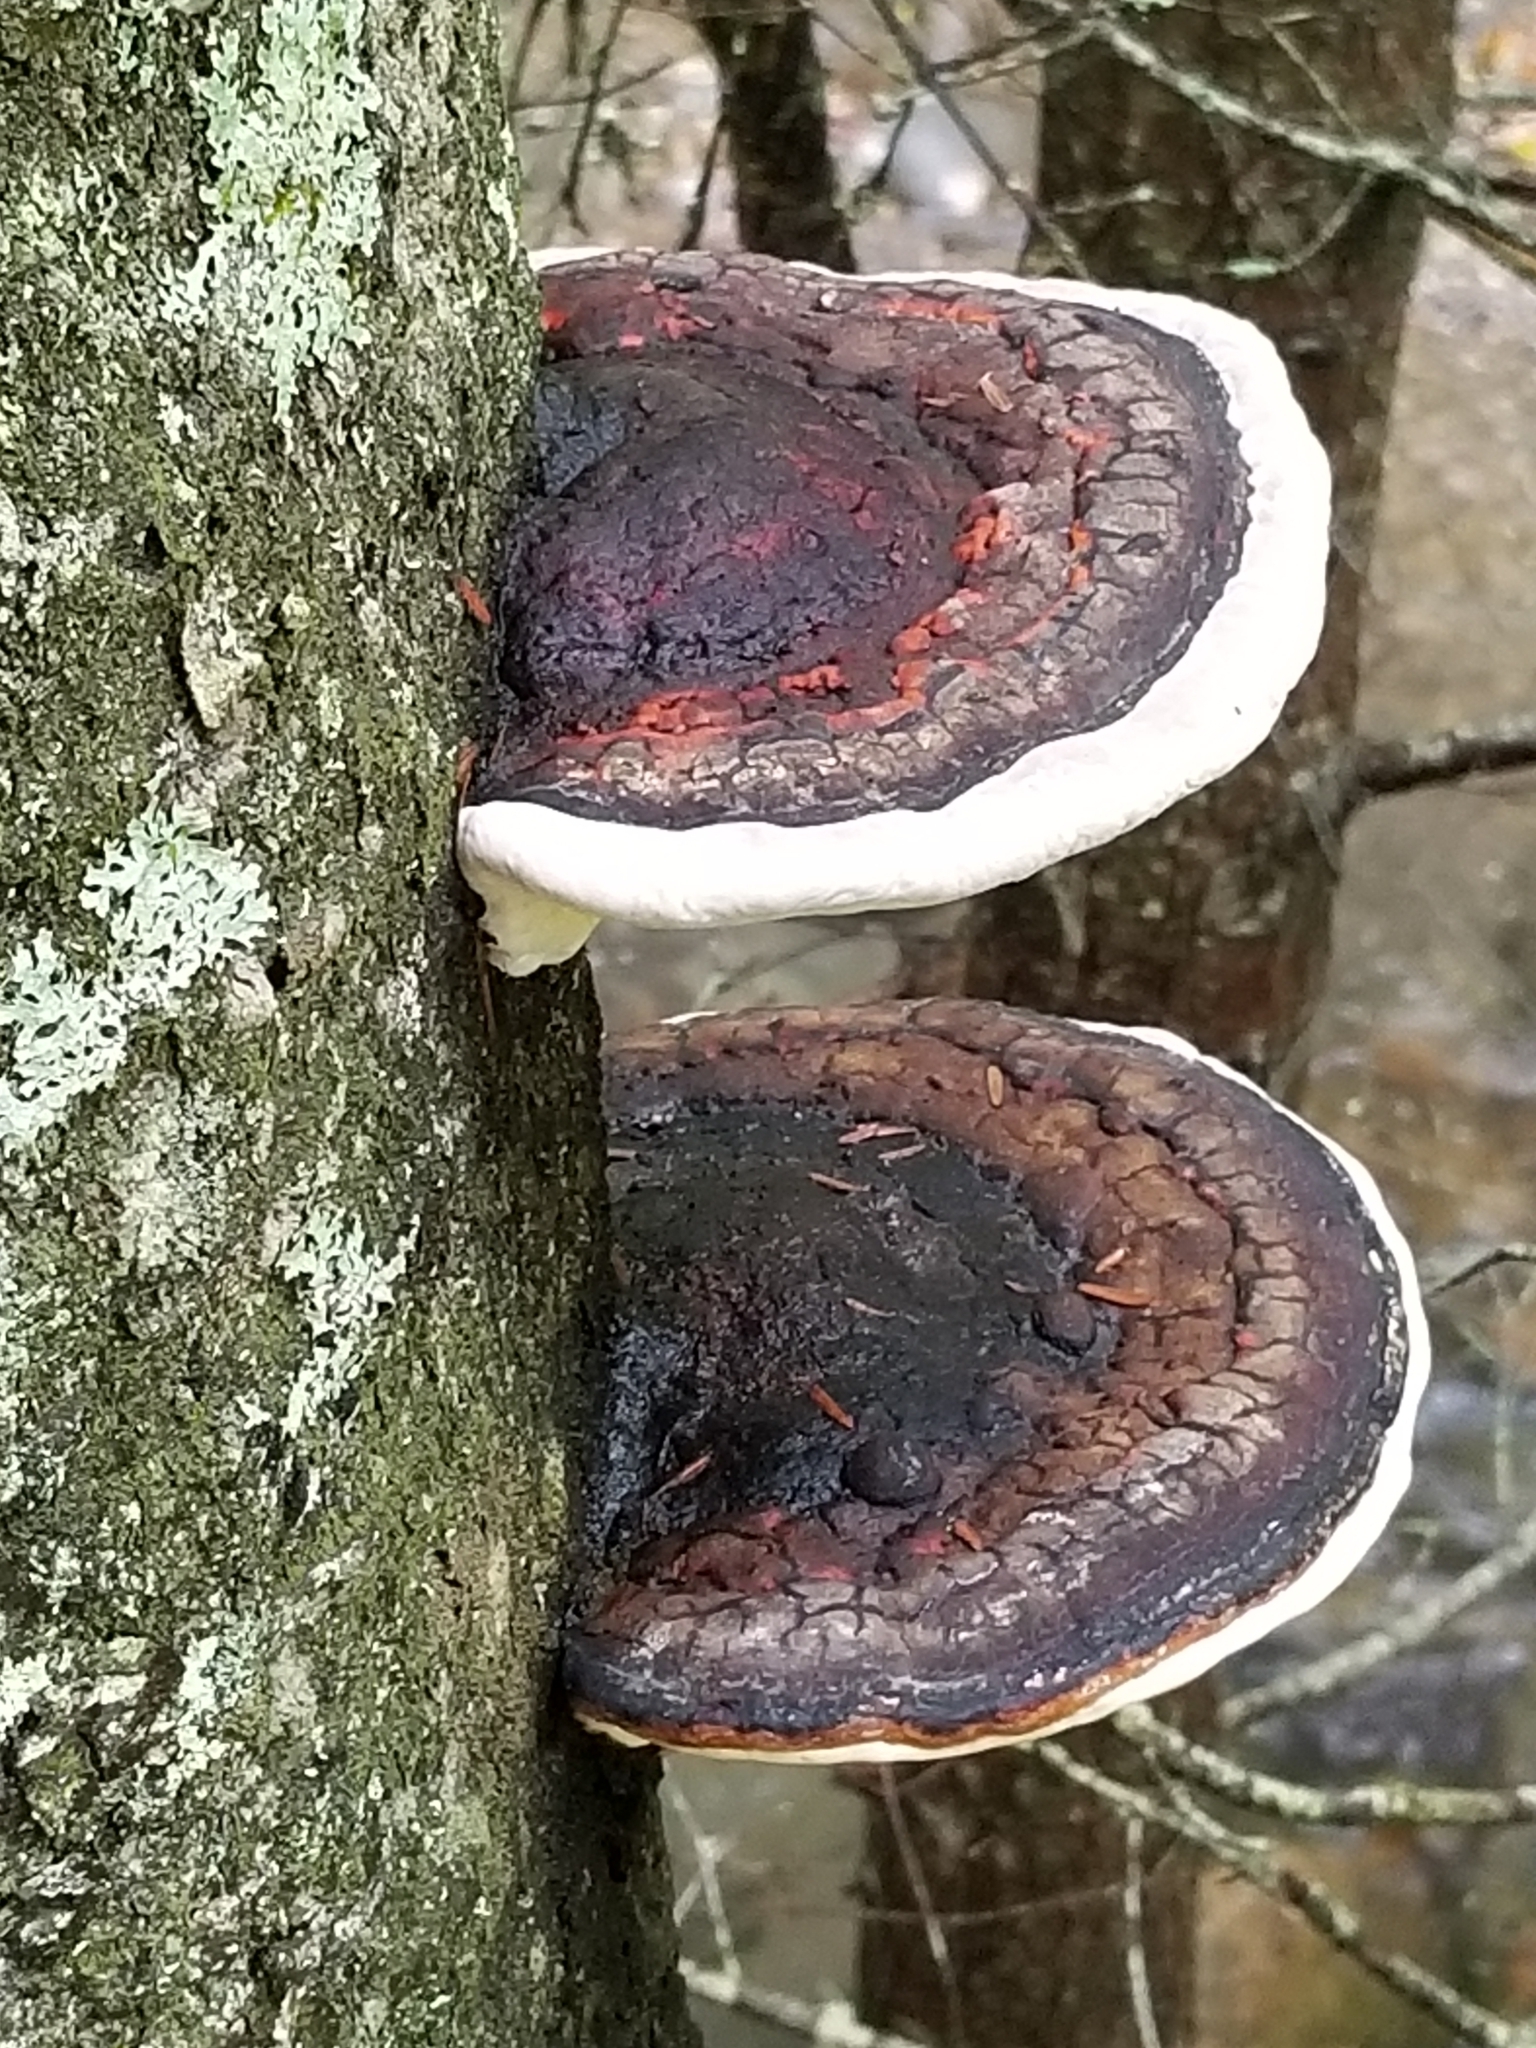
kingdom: Fungi
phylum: Basidiomycota
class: Agaricomycetes
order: Polyporales
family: Polyporaceae
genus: Ganoderma
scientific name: Ganoderma applanatum
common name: Artist's bracket
